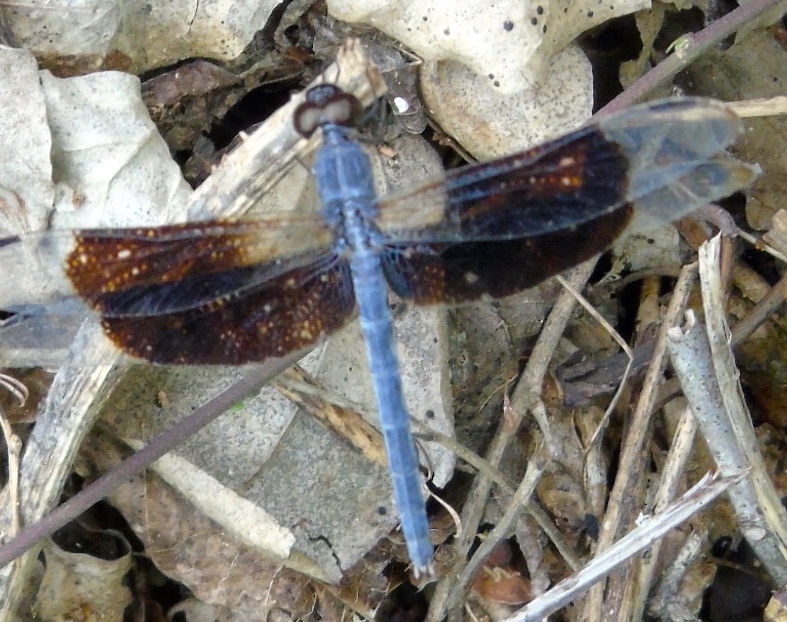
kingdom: Animalia
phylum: Arthropoda
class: Insecta
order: Odonata
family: Libellulidae
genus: Erythrodiplax
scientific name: Erythrodiplax funerea
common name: Black-winged dragonlet
